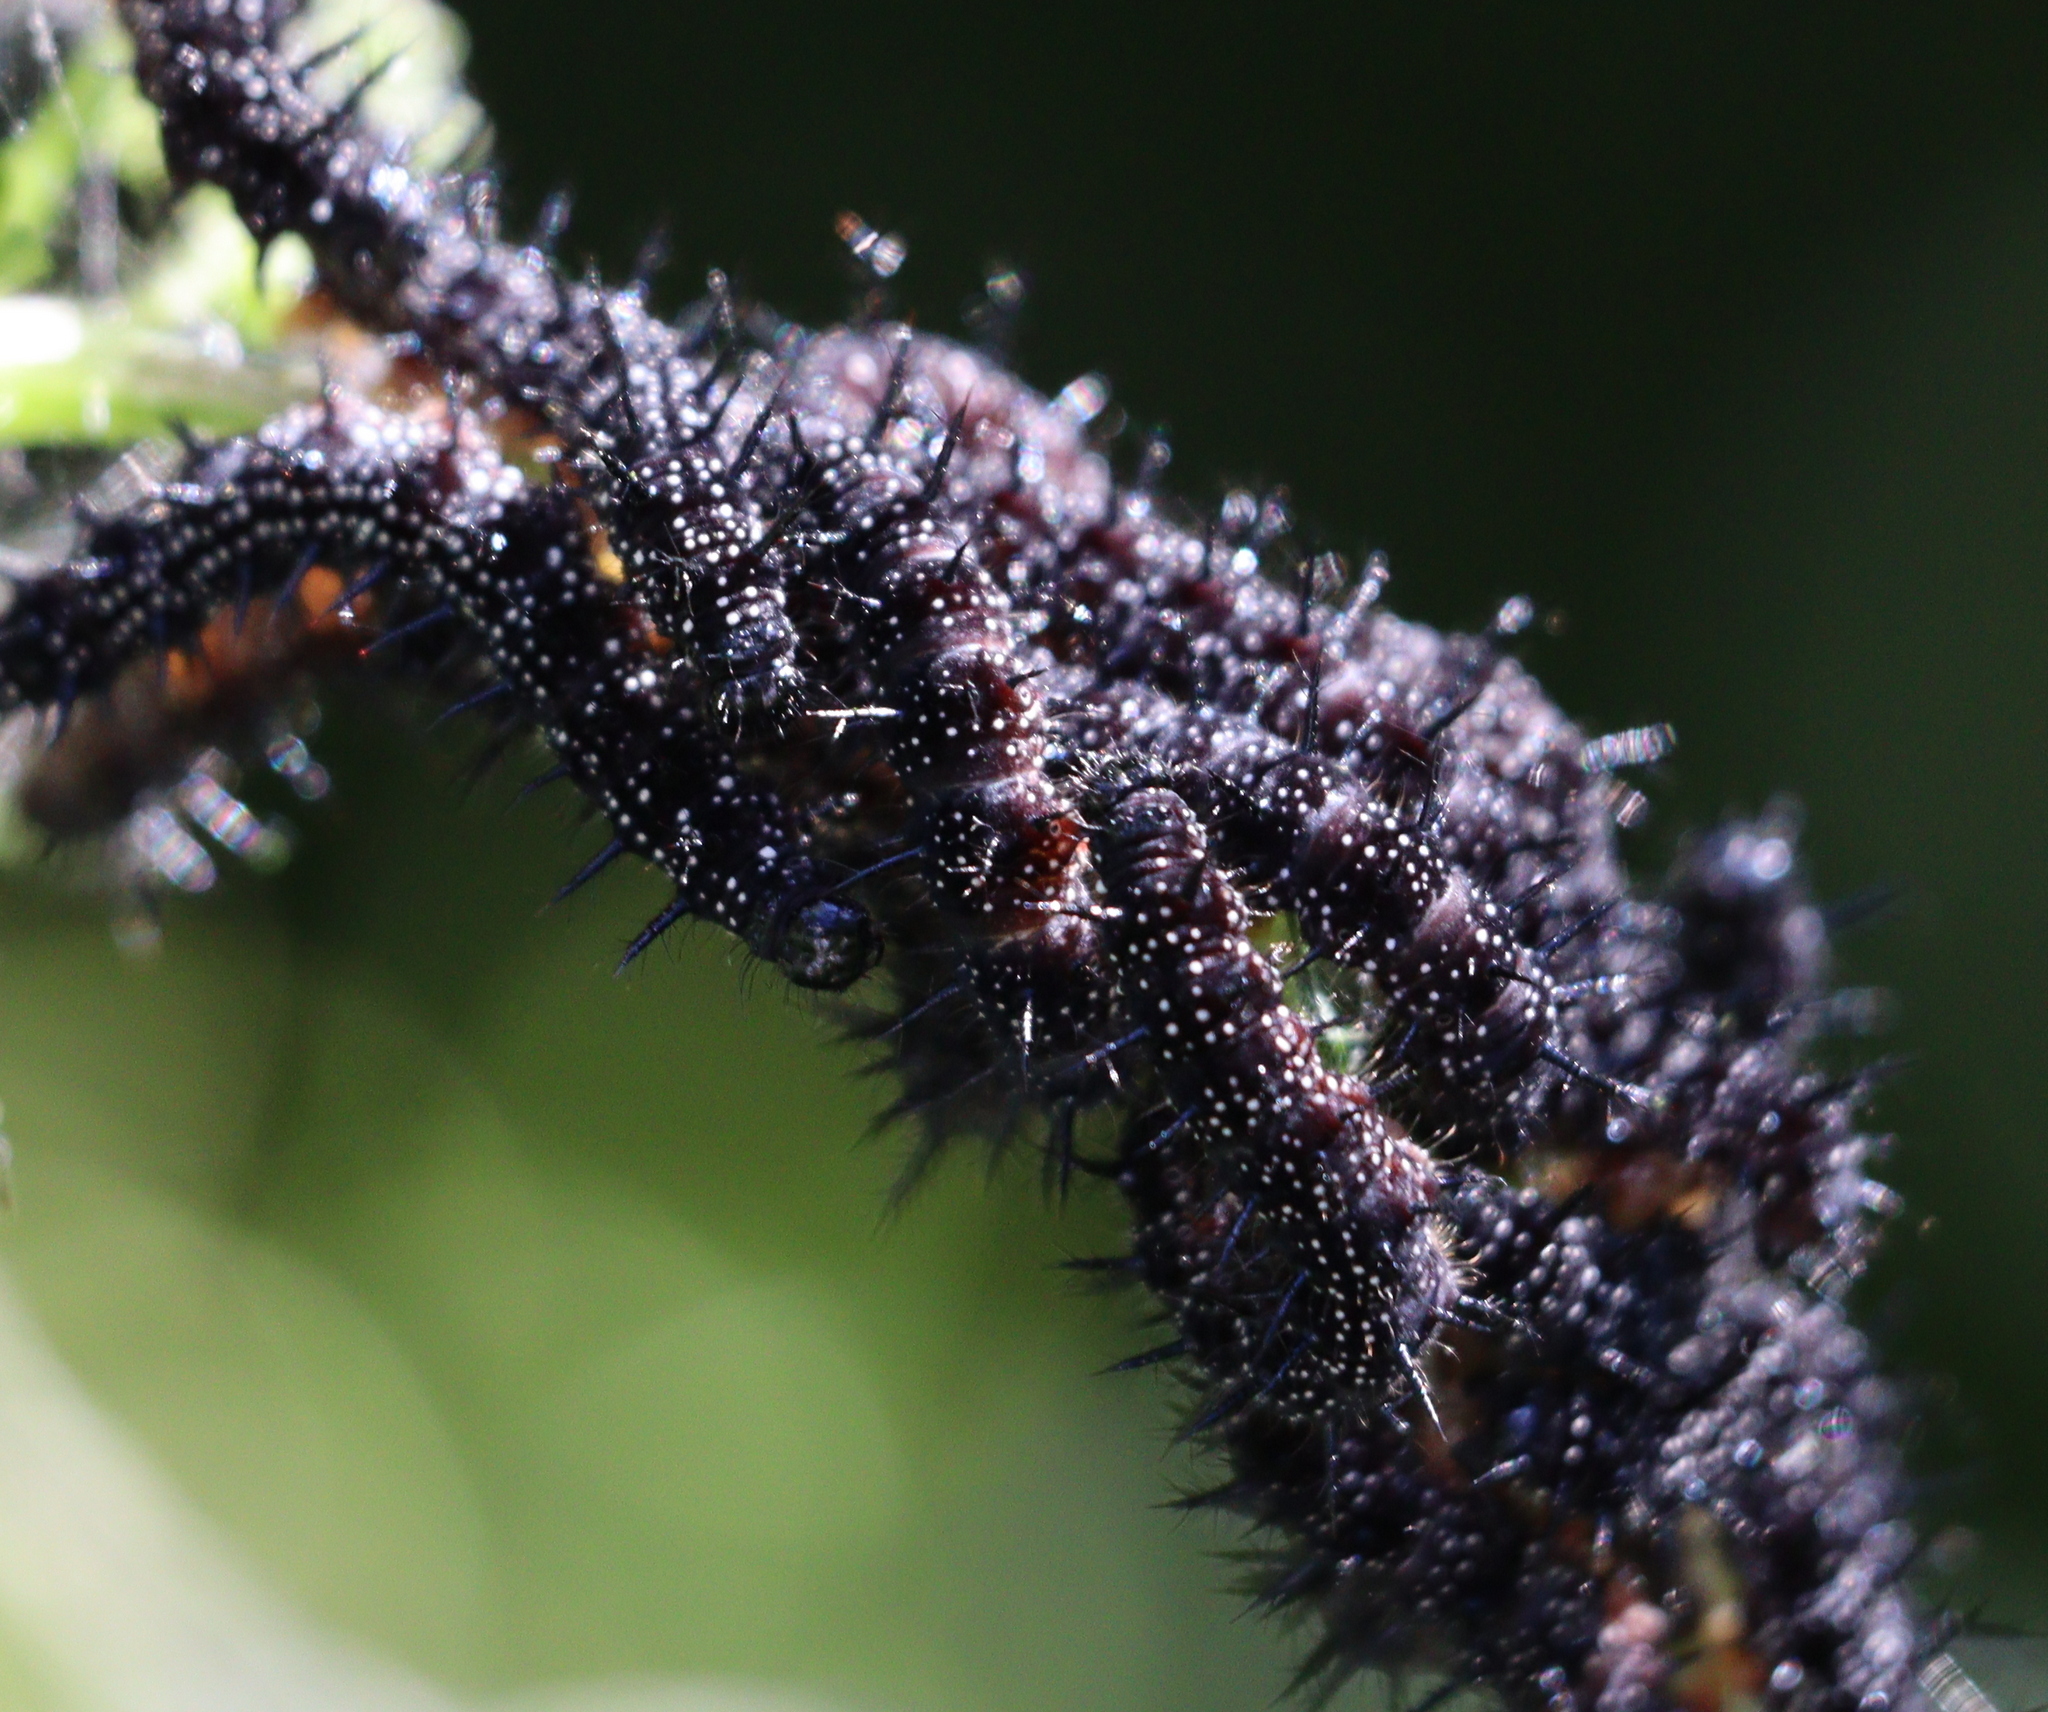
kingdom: Animalia
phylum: Arthropoda
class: Insecta
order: Lepidoptera
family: Nymphalidae
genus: Aglais
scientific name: Aglais io
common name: Peacock
